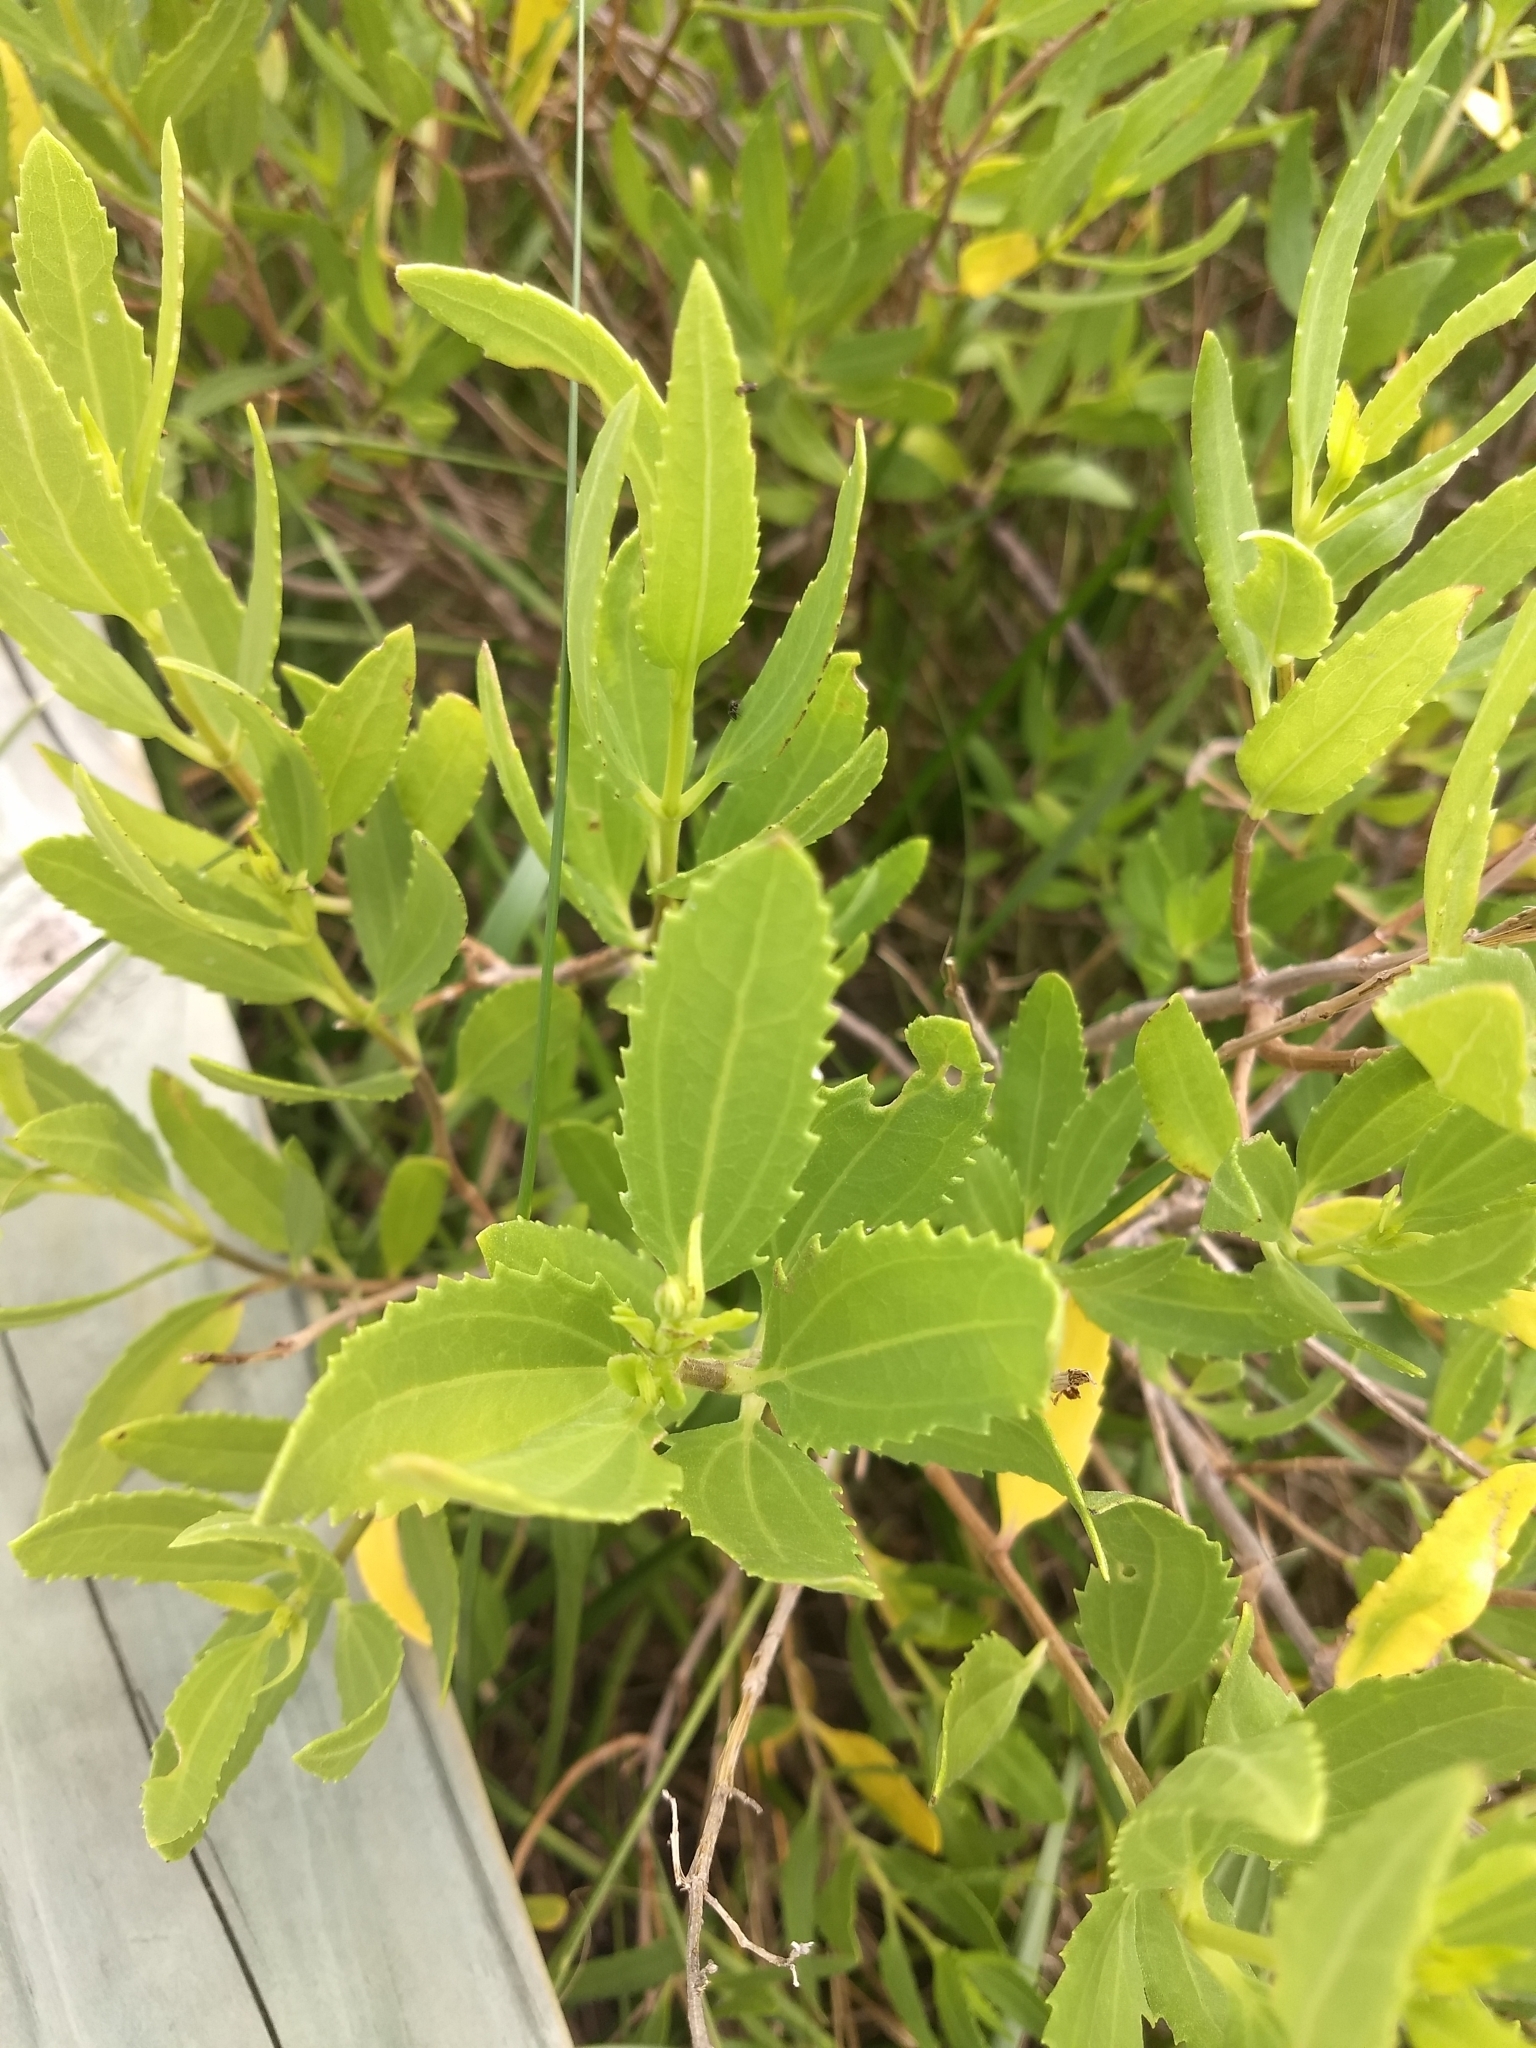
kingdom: Plantae
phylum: Tracheophyta
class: Magnoliopsida
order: Asterales
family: Asteraceae
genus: Iva
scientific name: Iva frutescens
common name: Big-leaved marsh-elder
